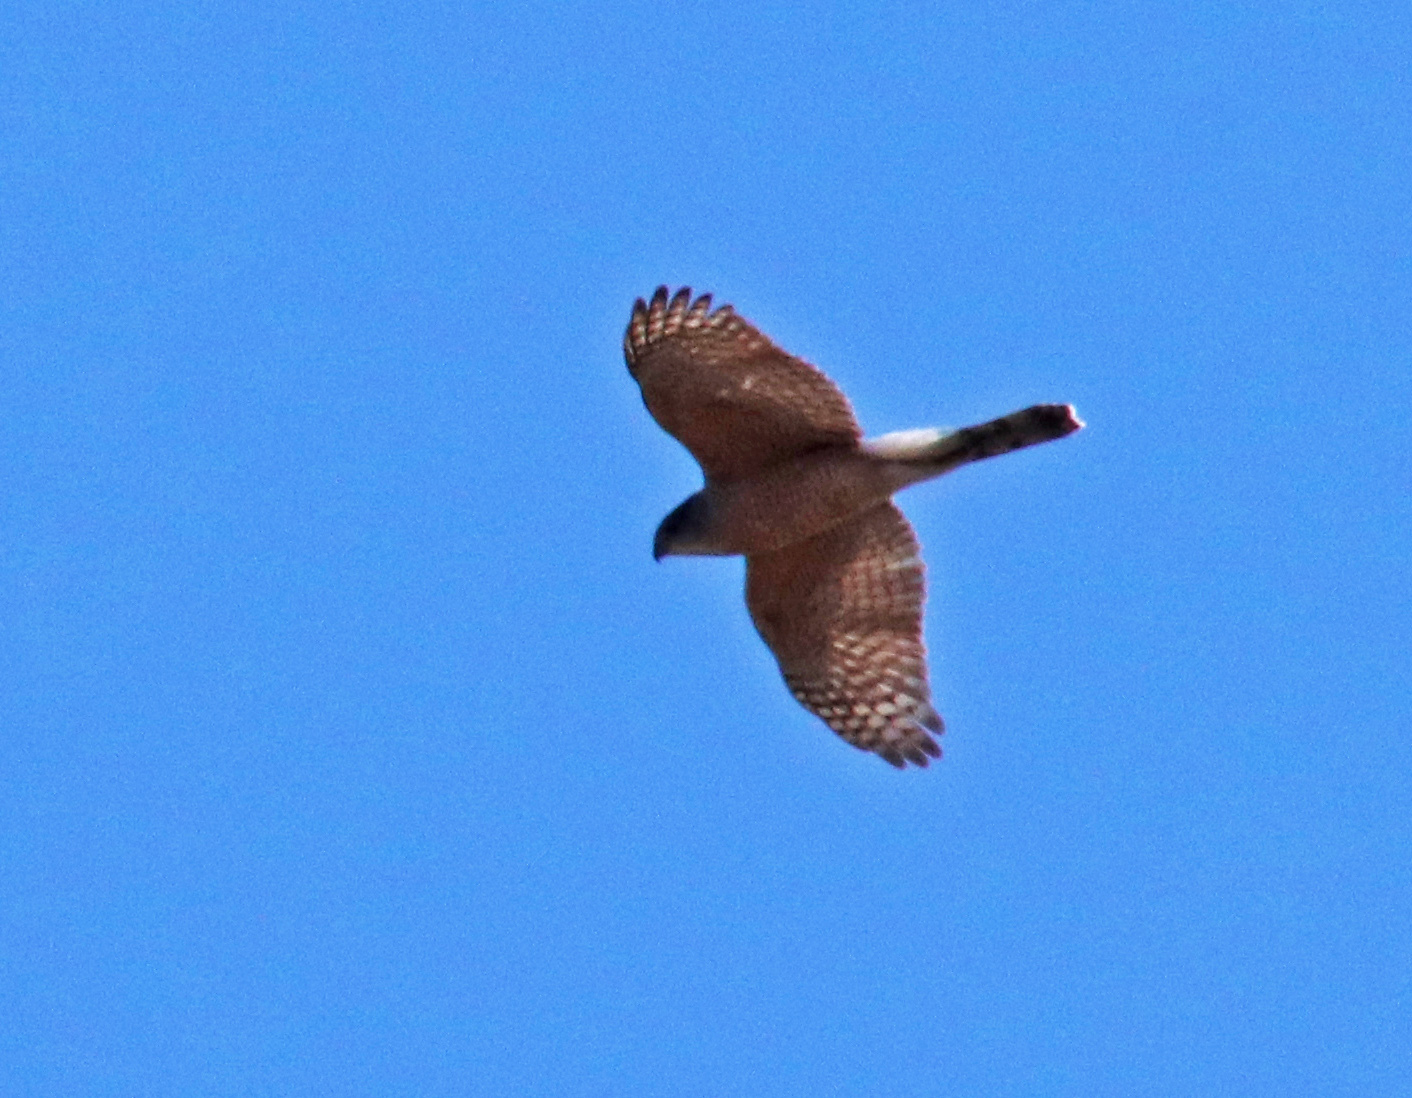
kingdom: Animalia
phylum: Chordata
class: Aves
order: Accipitriformes
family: Accipitridae
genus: Accipiter
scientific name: Accipiter cooperii
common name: Cooper's hawk
